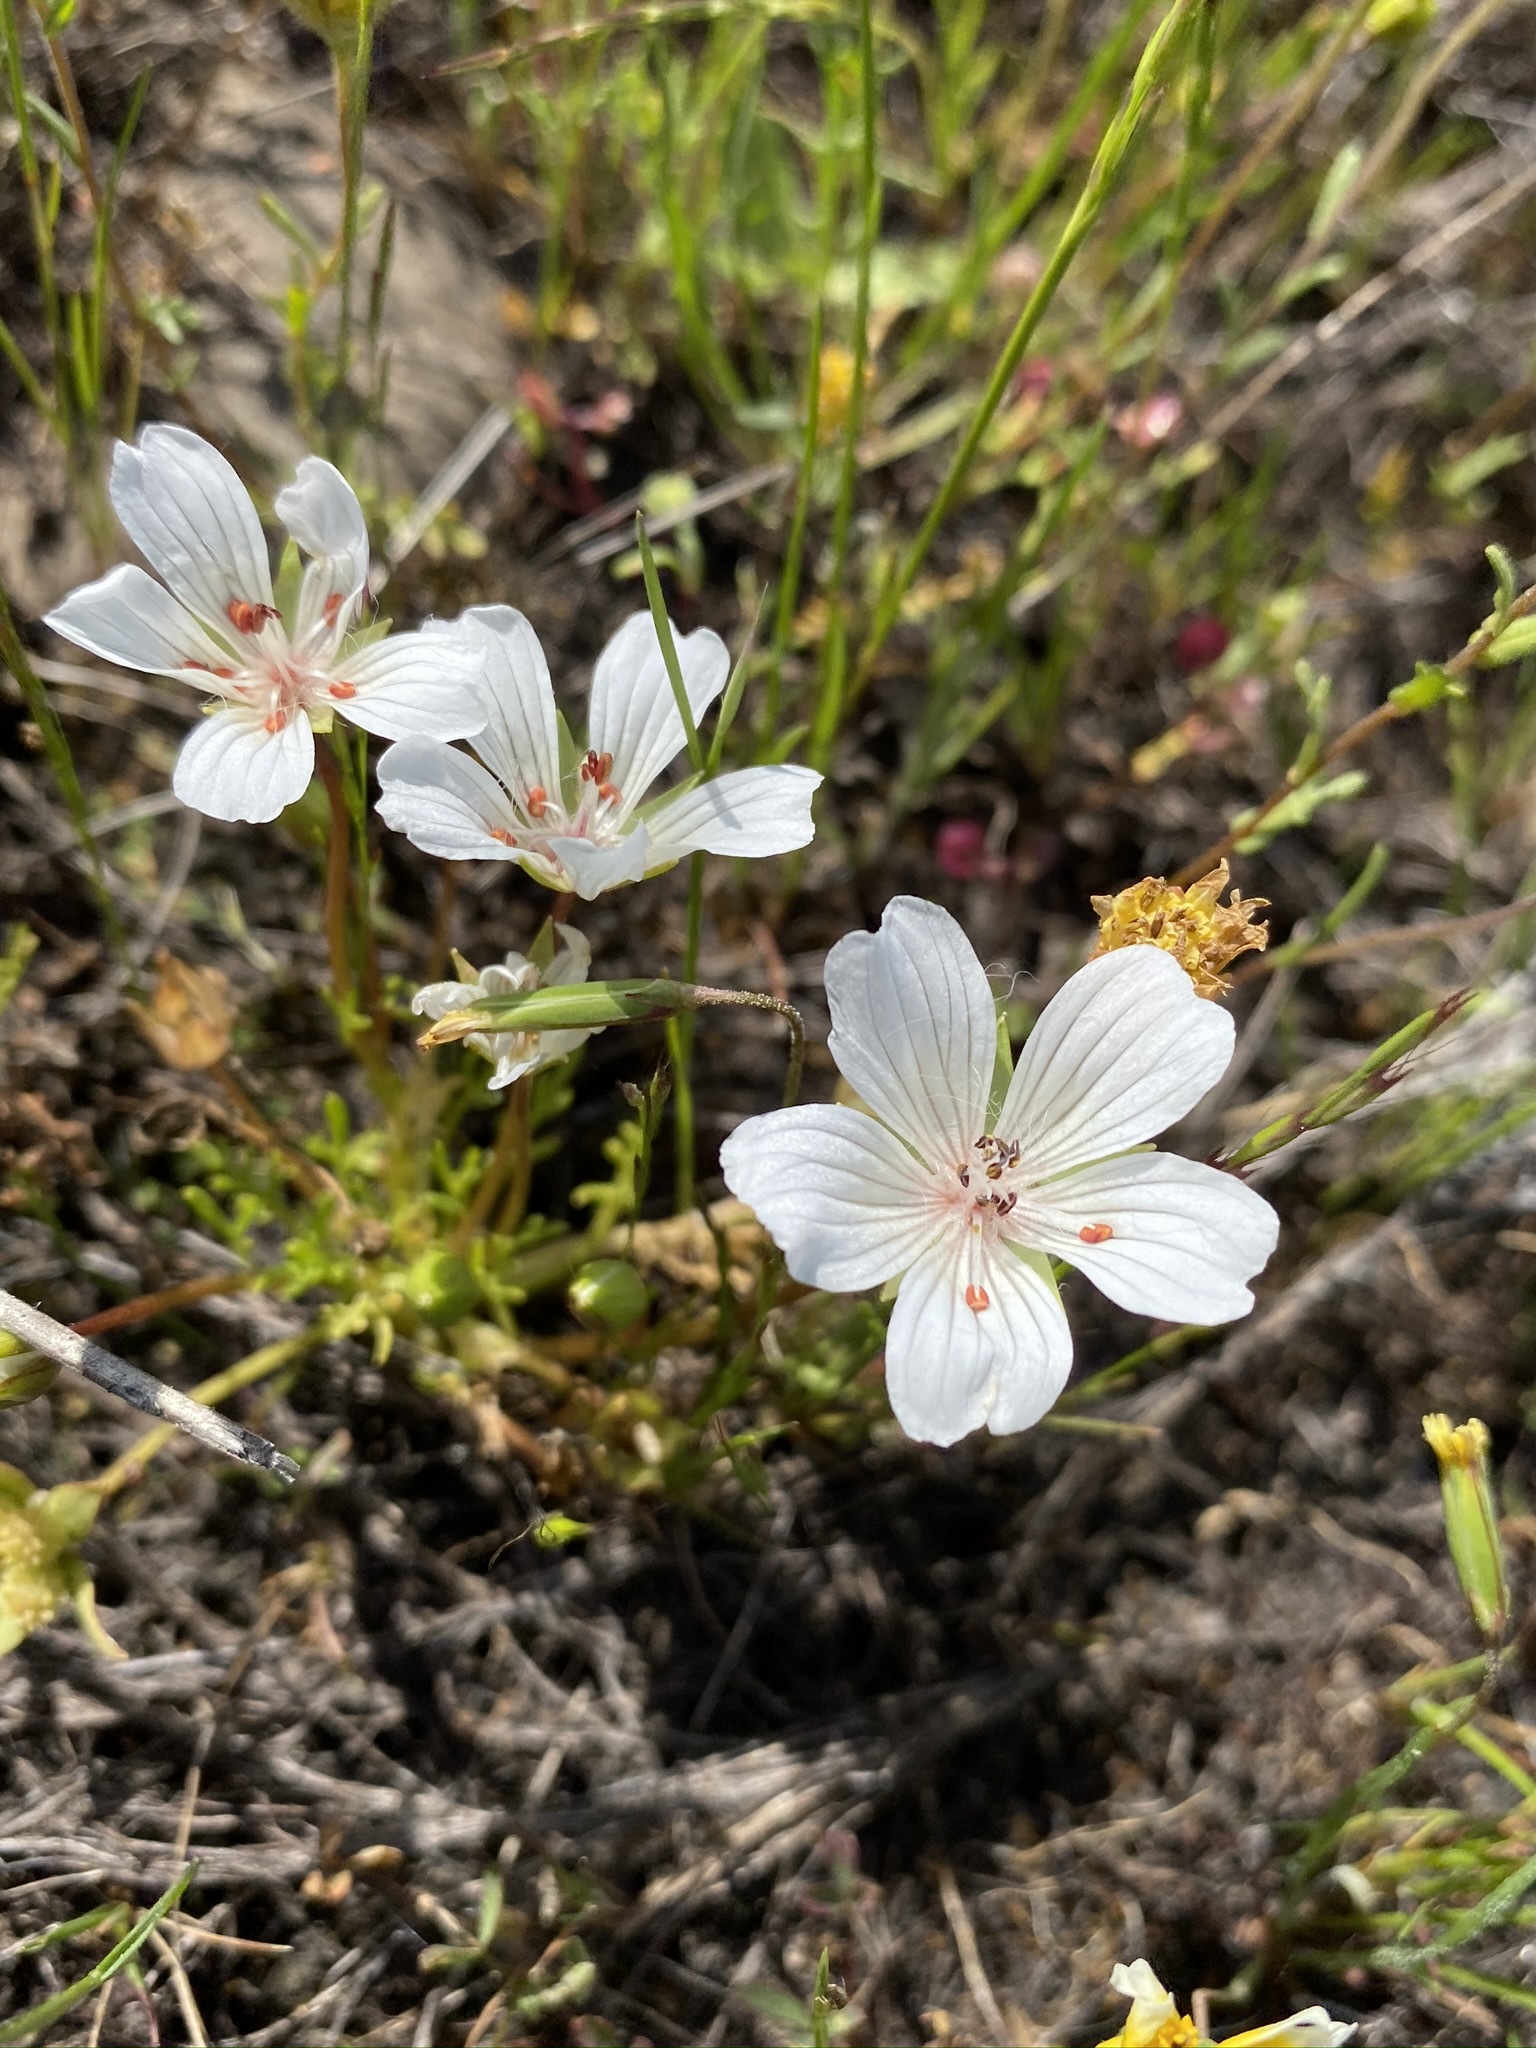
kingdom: Plantae
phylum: Tracheophyta
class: Magnoliopsida
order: Brassicales
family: Limnanthaceae
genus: Limnanthes
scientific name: Limnanthes douglasii
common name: Meadow-foam
